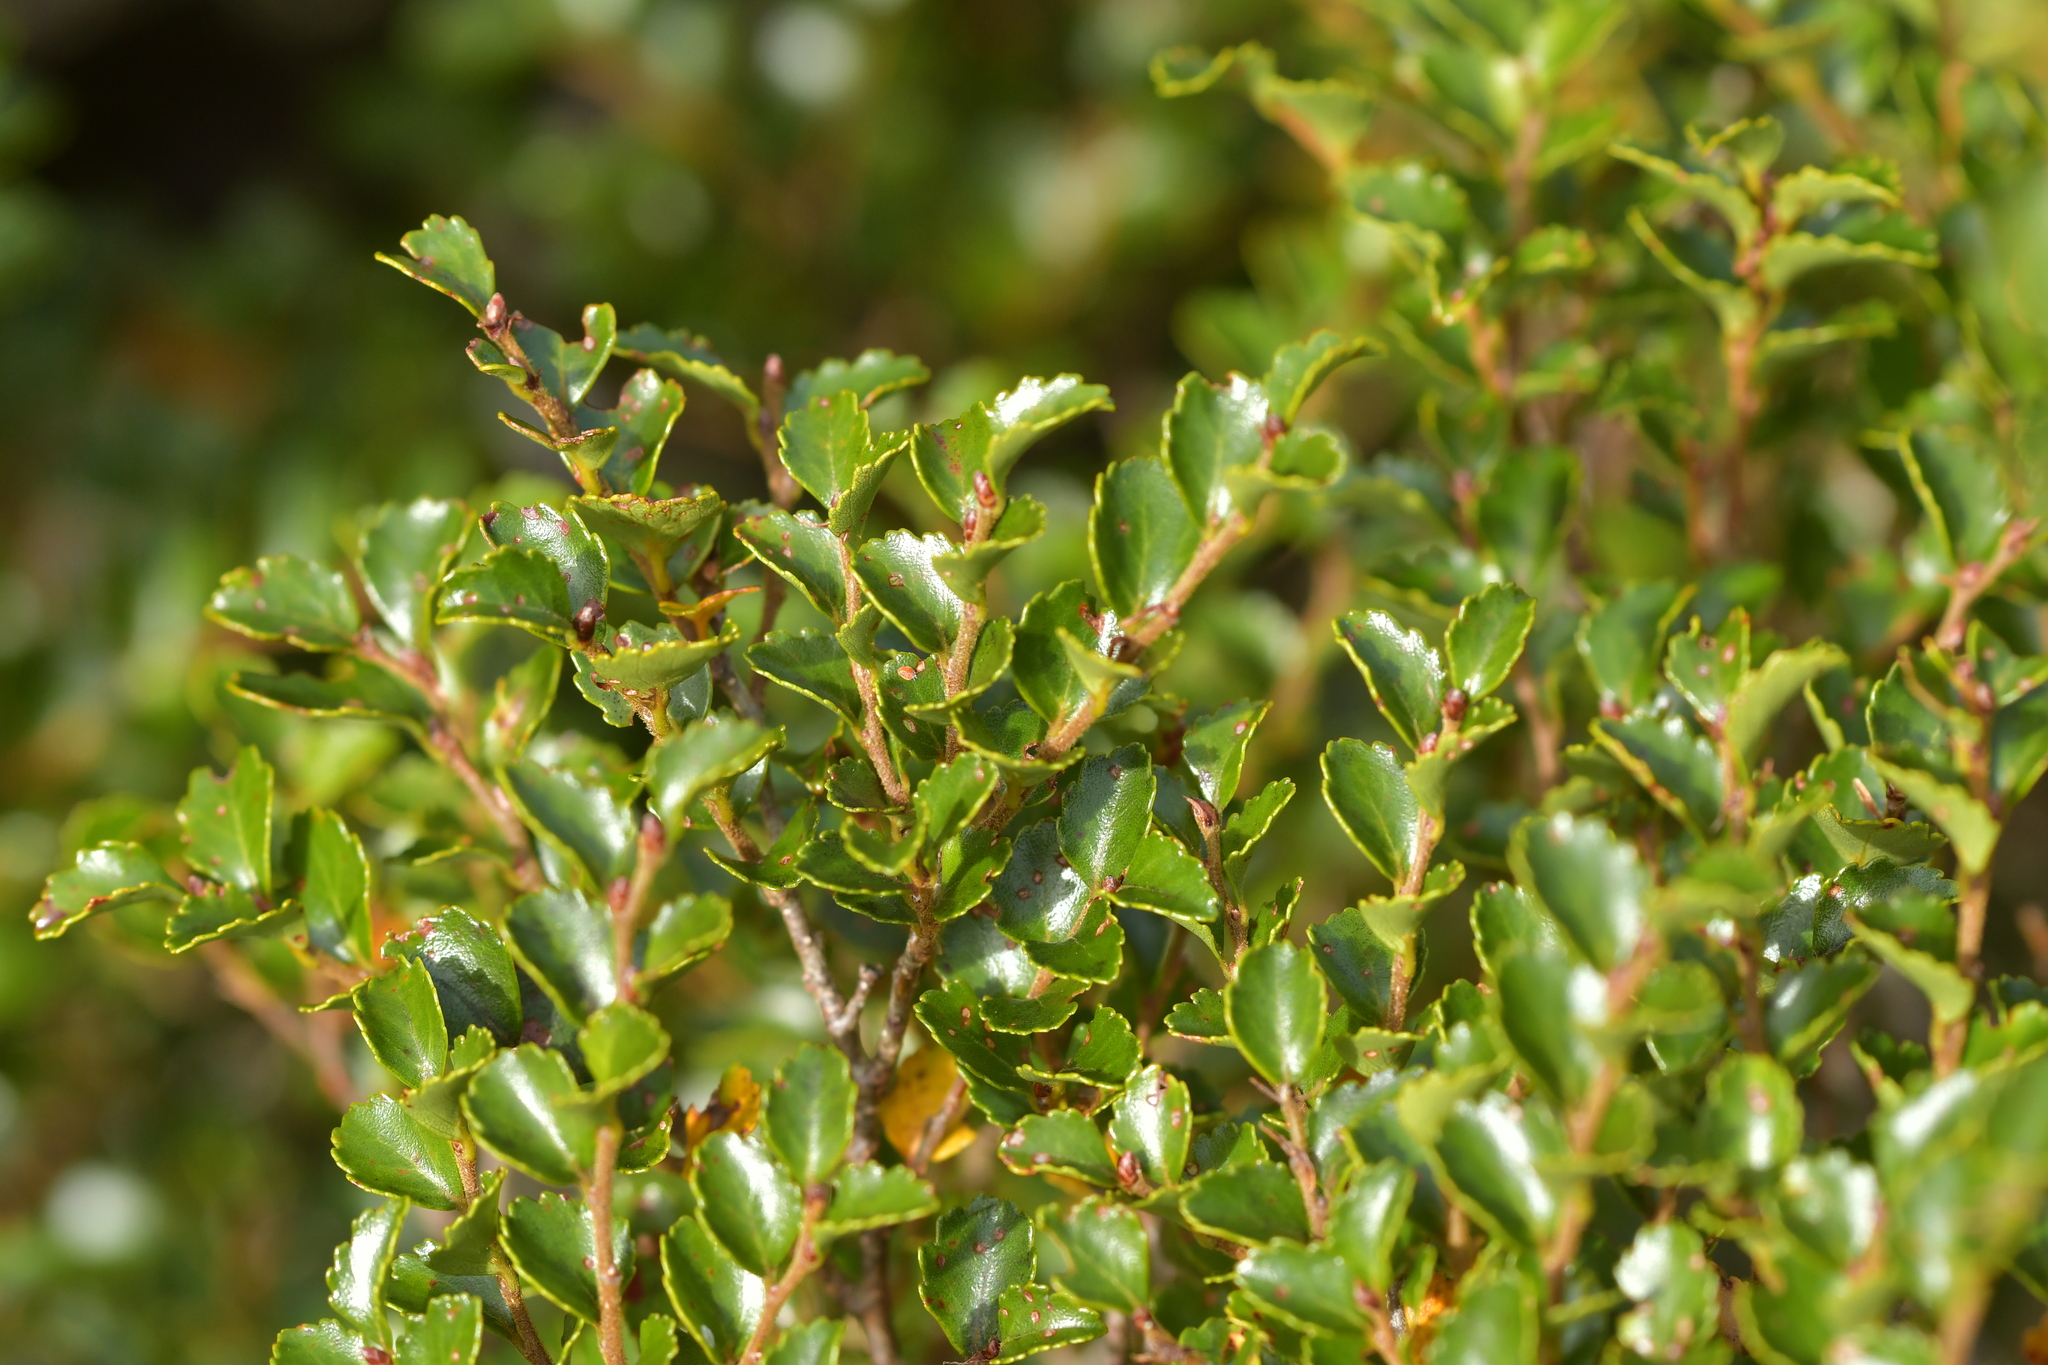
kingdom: Plantae
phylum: Tracheophyta
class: Magnoliopsida
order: Fagales
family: Nothofagaceae
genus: Nothofagus
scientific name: Nothofagus menziesii
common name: Silver beech
